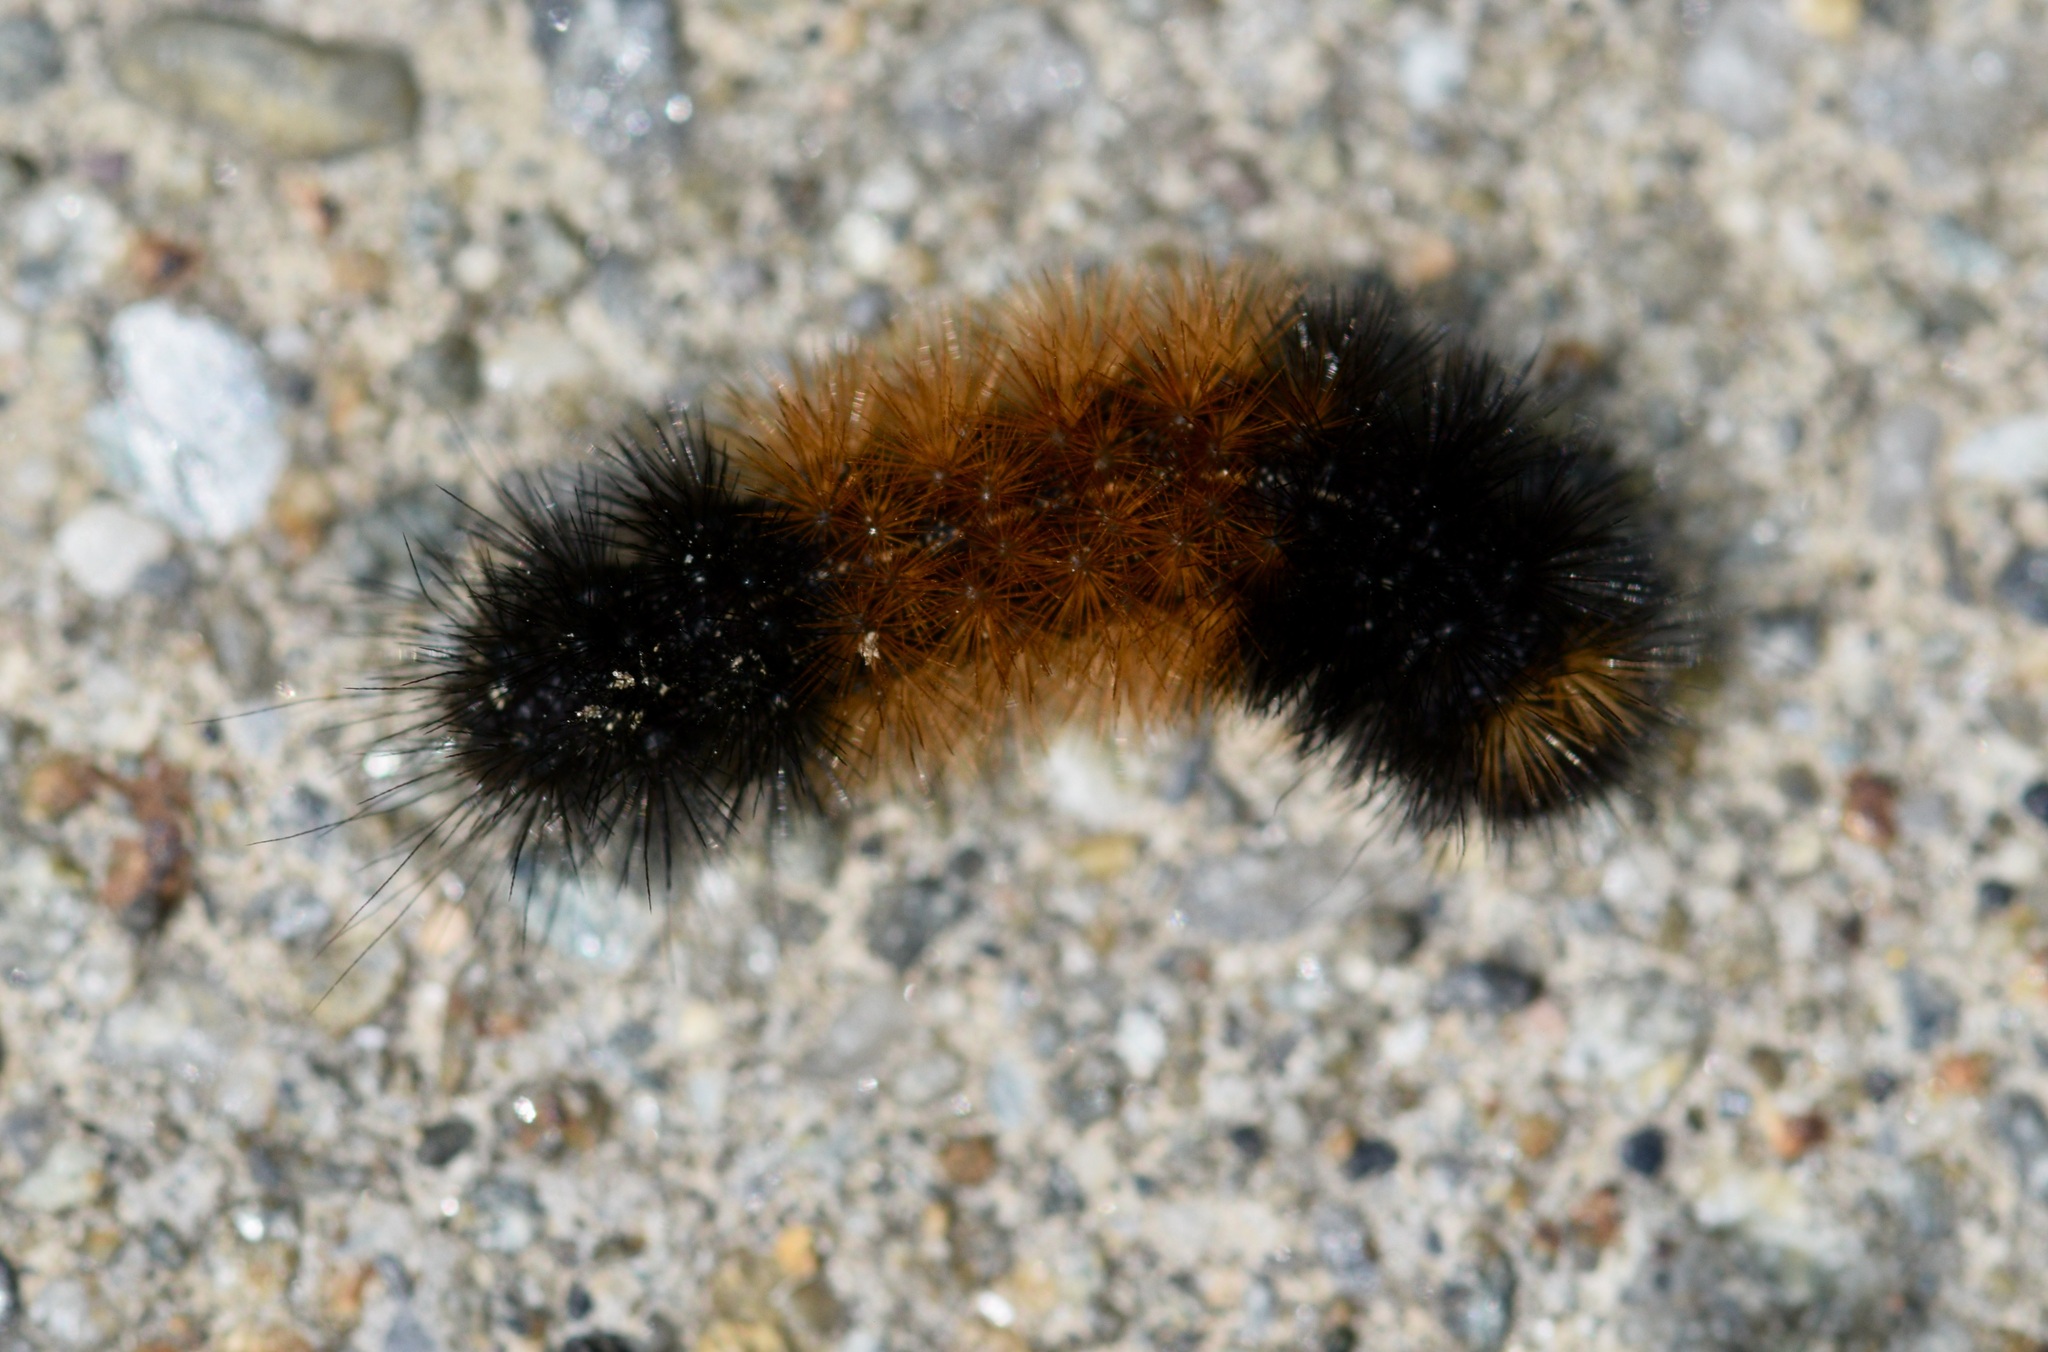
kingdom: Animalia
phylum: Arthropoda
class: Insecta
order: Lepidoptera
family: Erebidae
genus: Pyrrharctia
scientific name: Pyrrharctia isabella
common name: Isabella tiger moth
